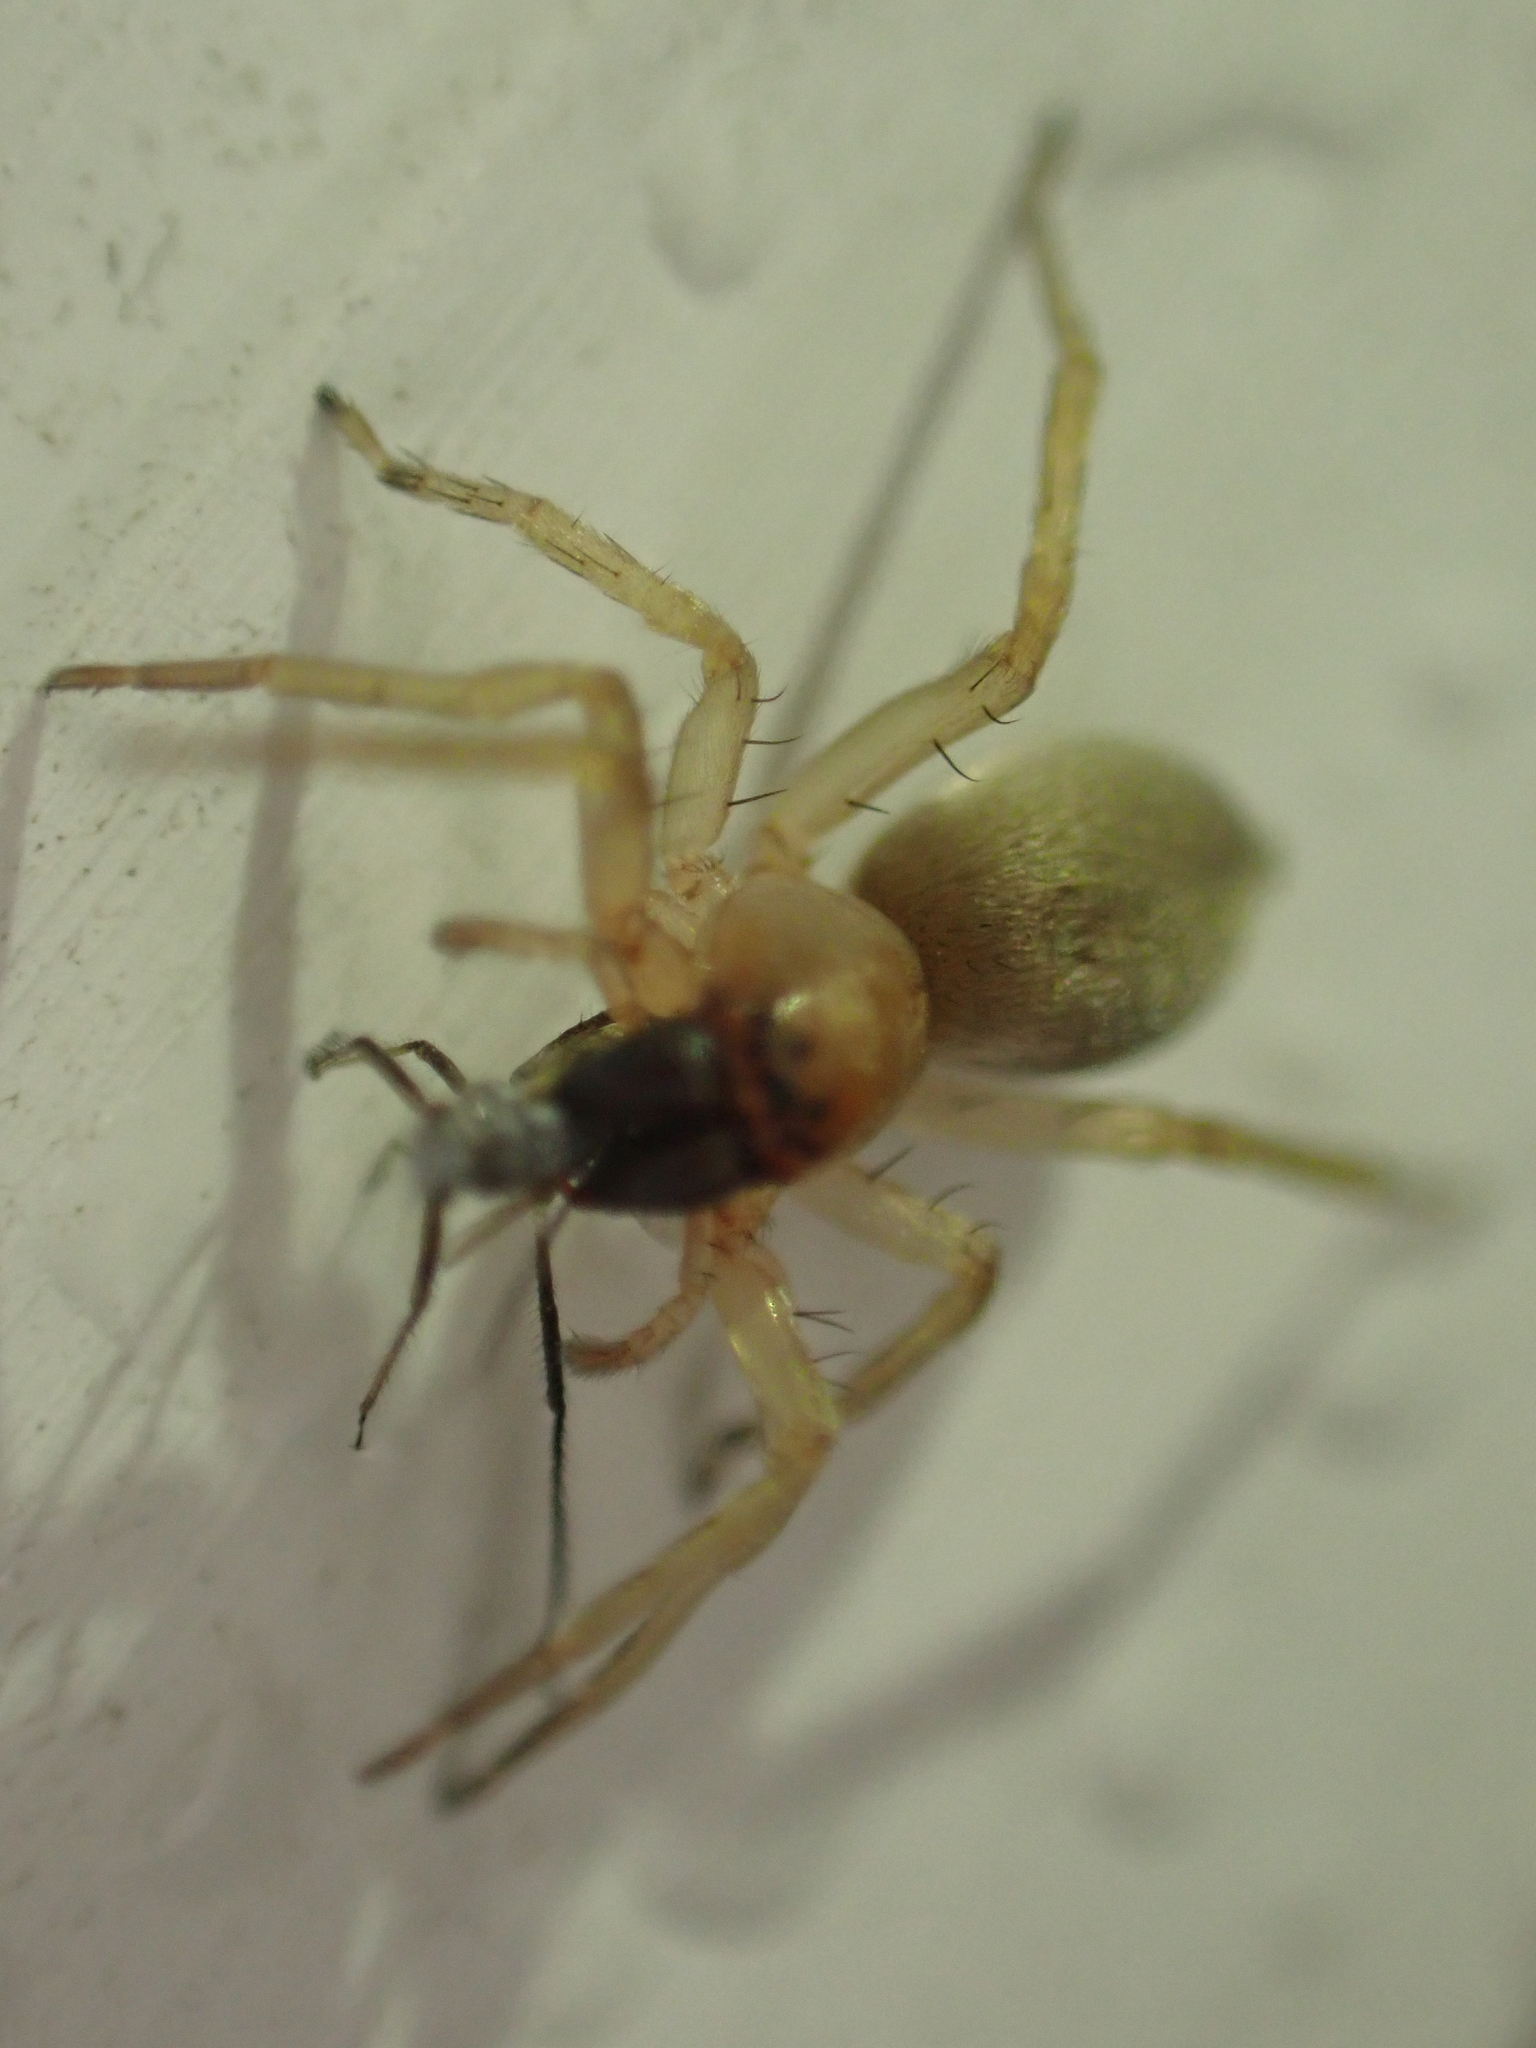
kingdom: Animalia
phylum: Arthropoda
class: Arachnida
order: Araneae
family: Clubionidae
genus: Clubiona
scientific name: Clubiona
